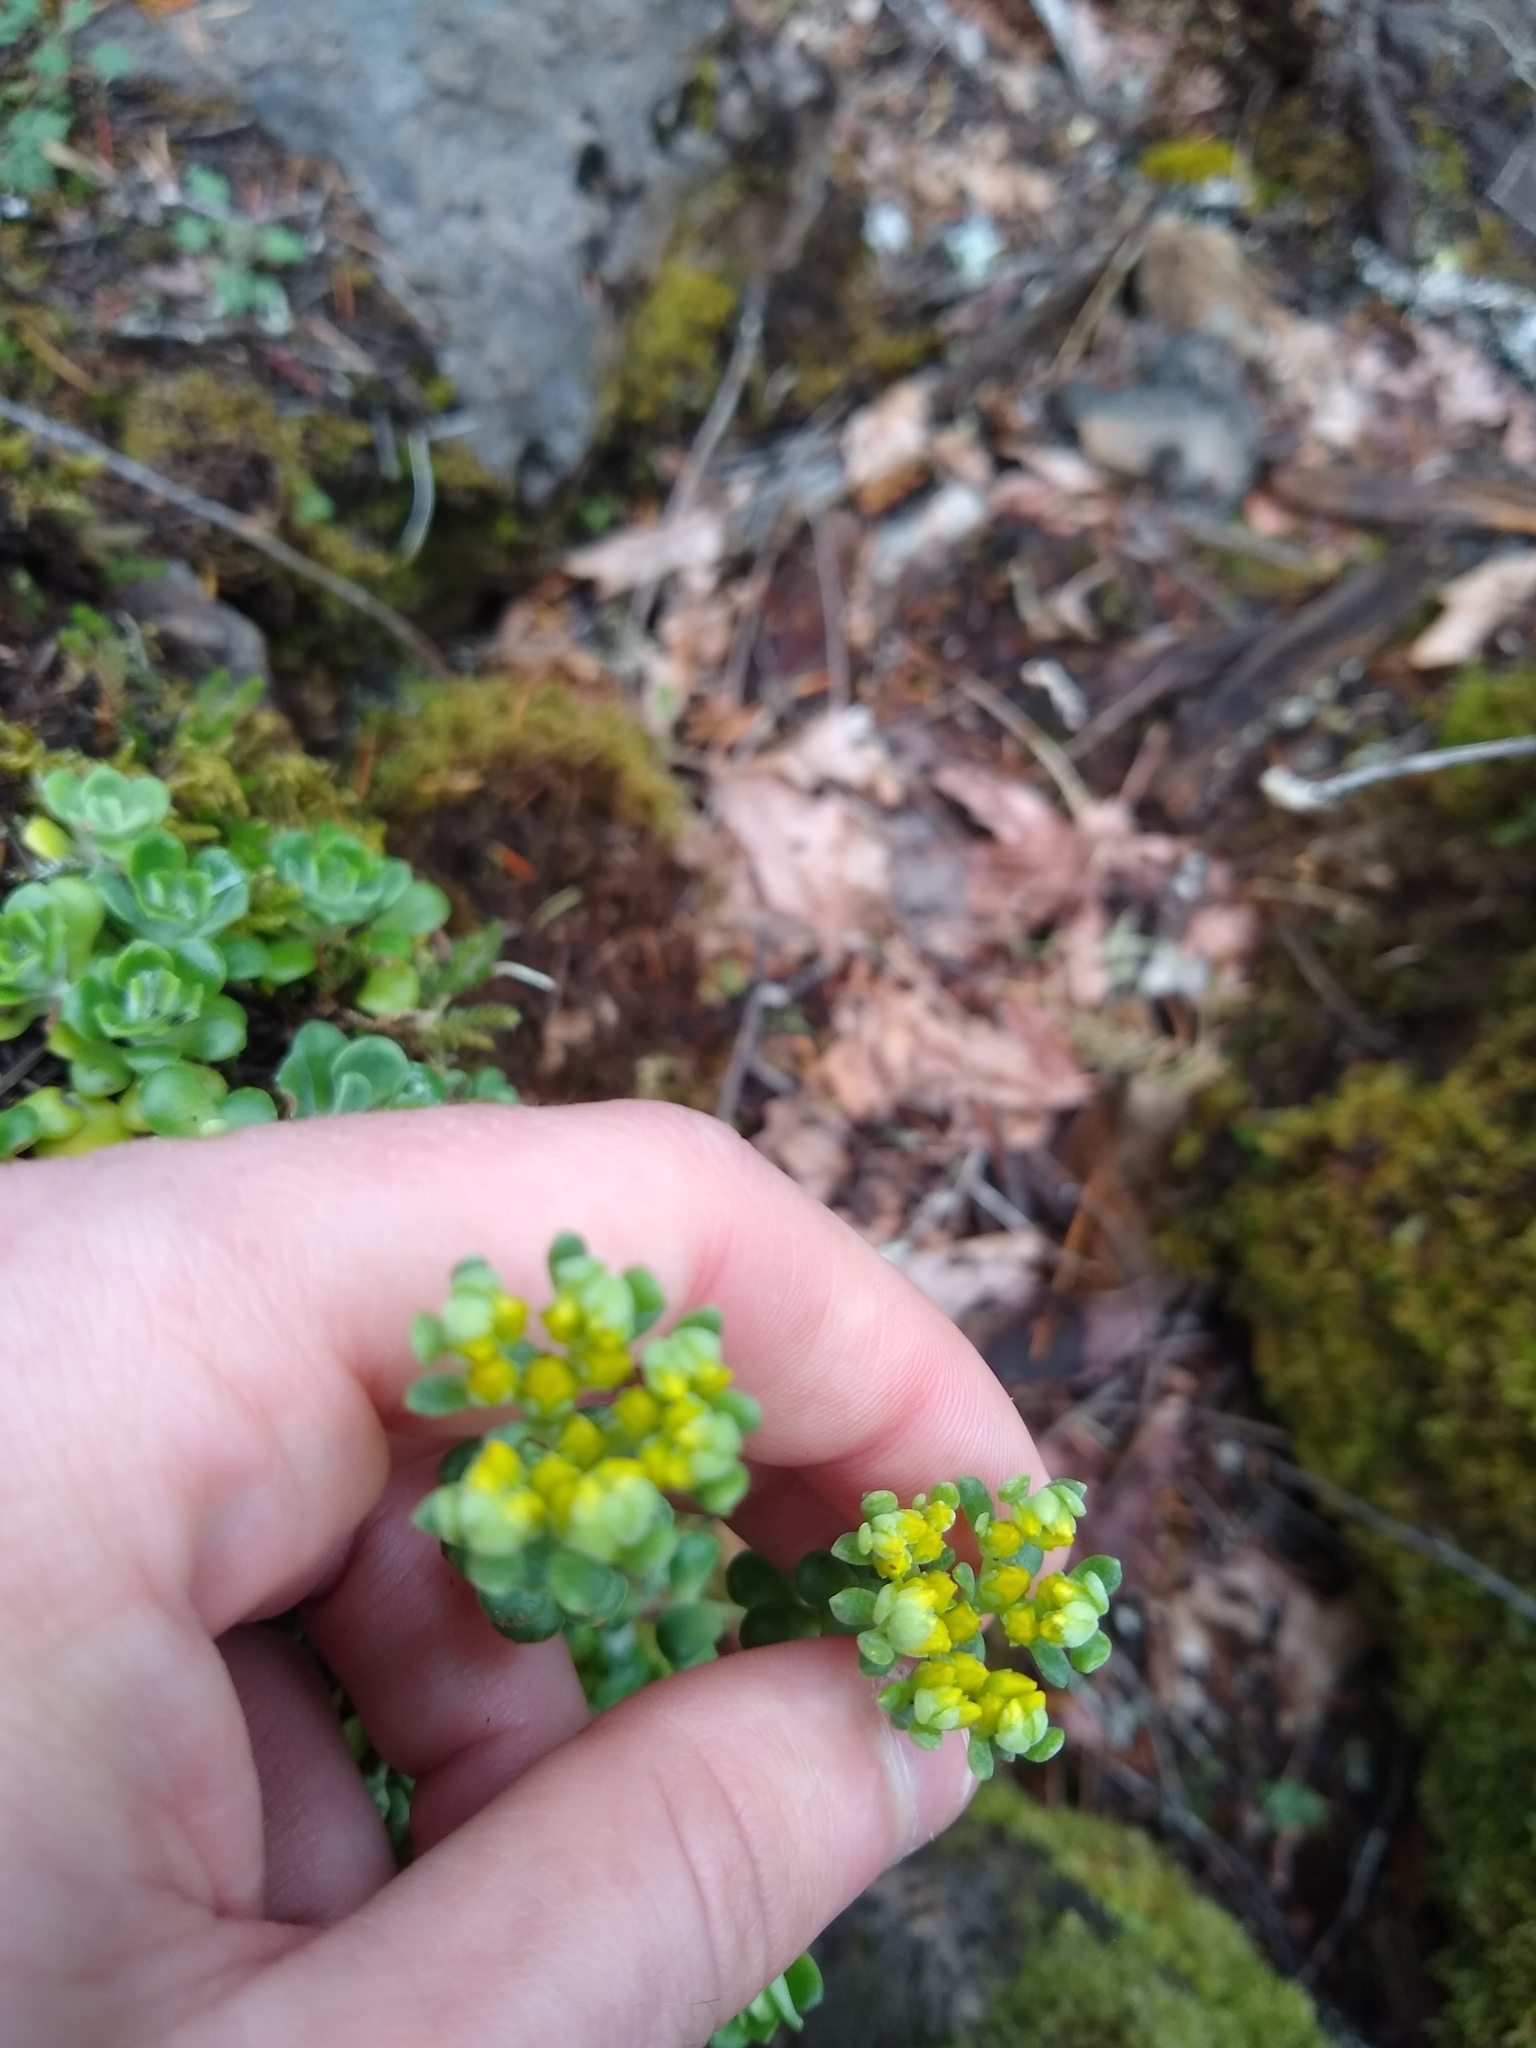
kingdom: Plantae
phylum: Tracheophyta
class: Magnoliopsida
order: Saxifragales
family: Crassulaceae
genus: Sedum
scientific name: Sedum spathulifolium
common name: Colorado stonecrop
